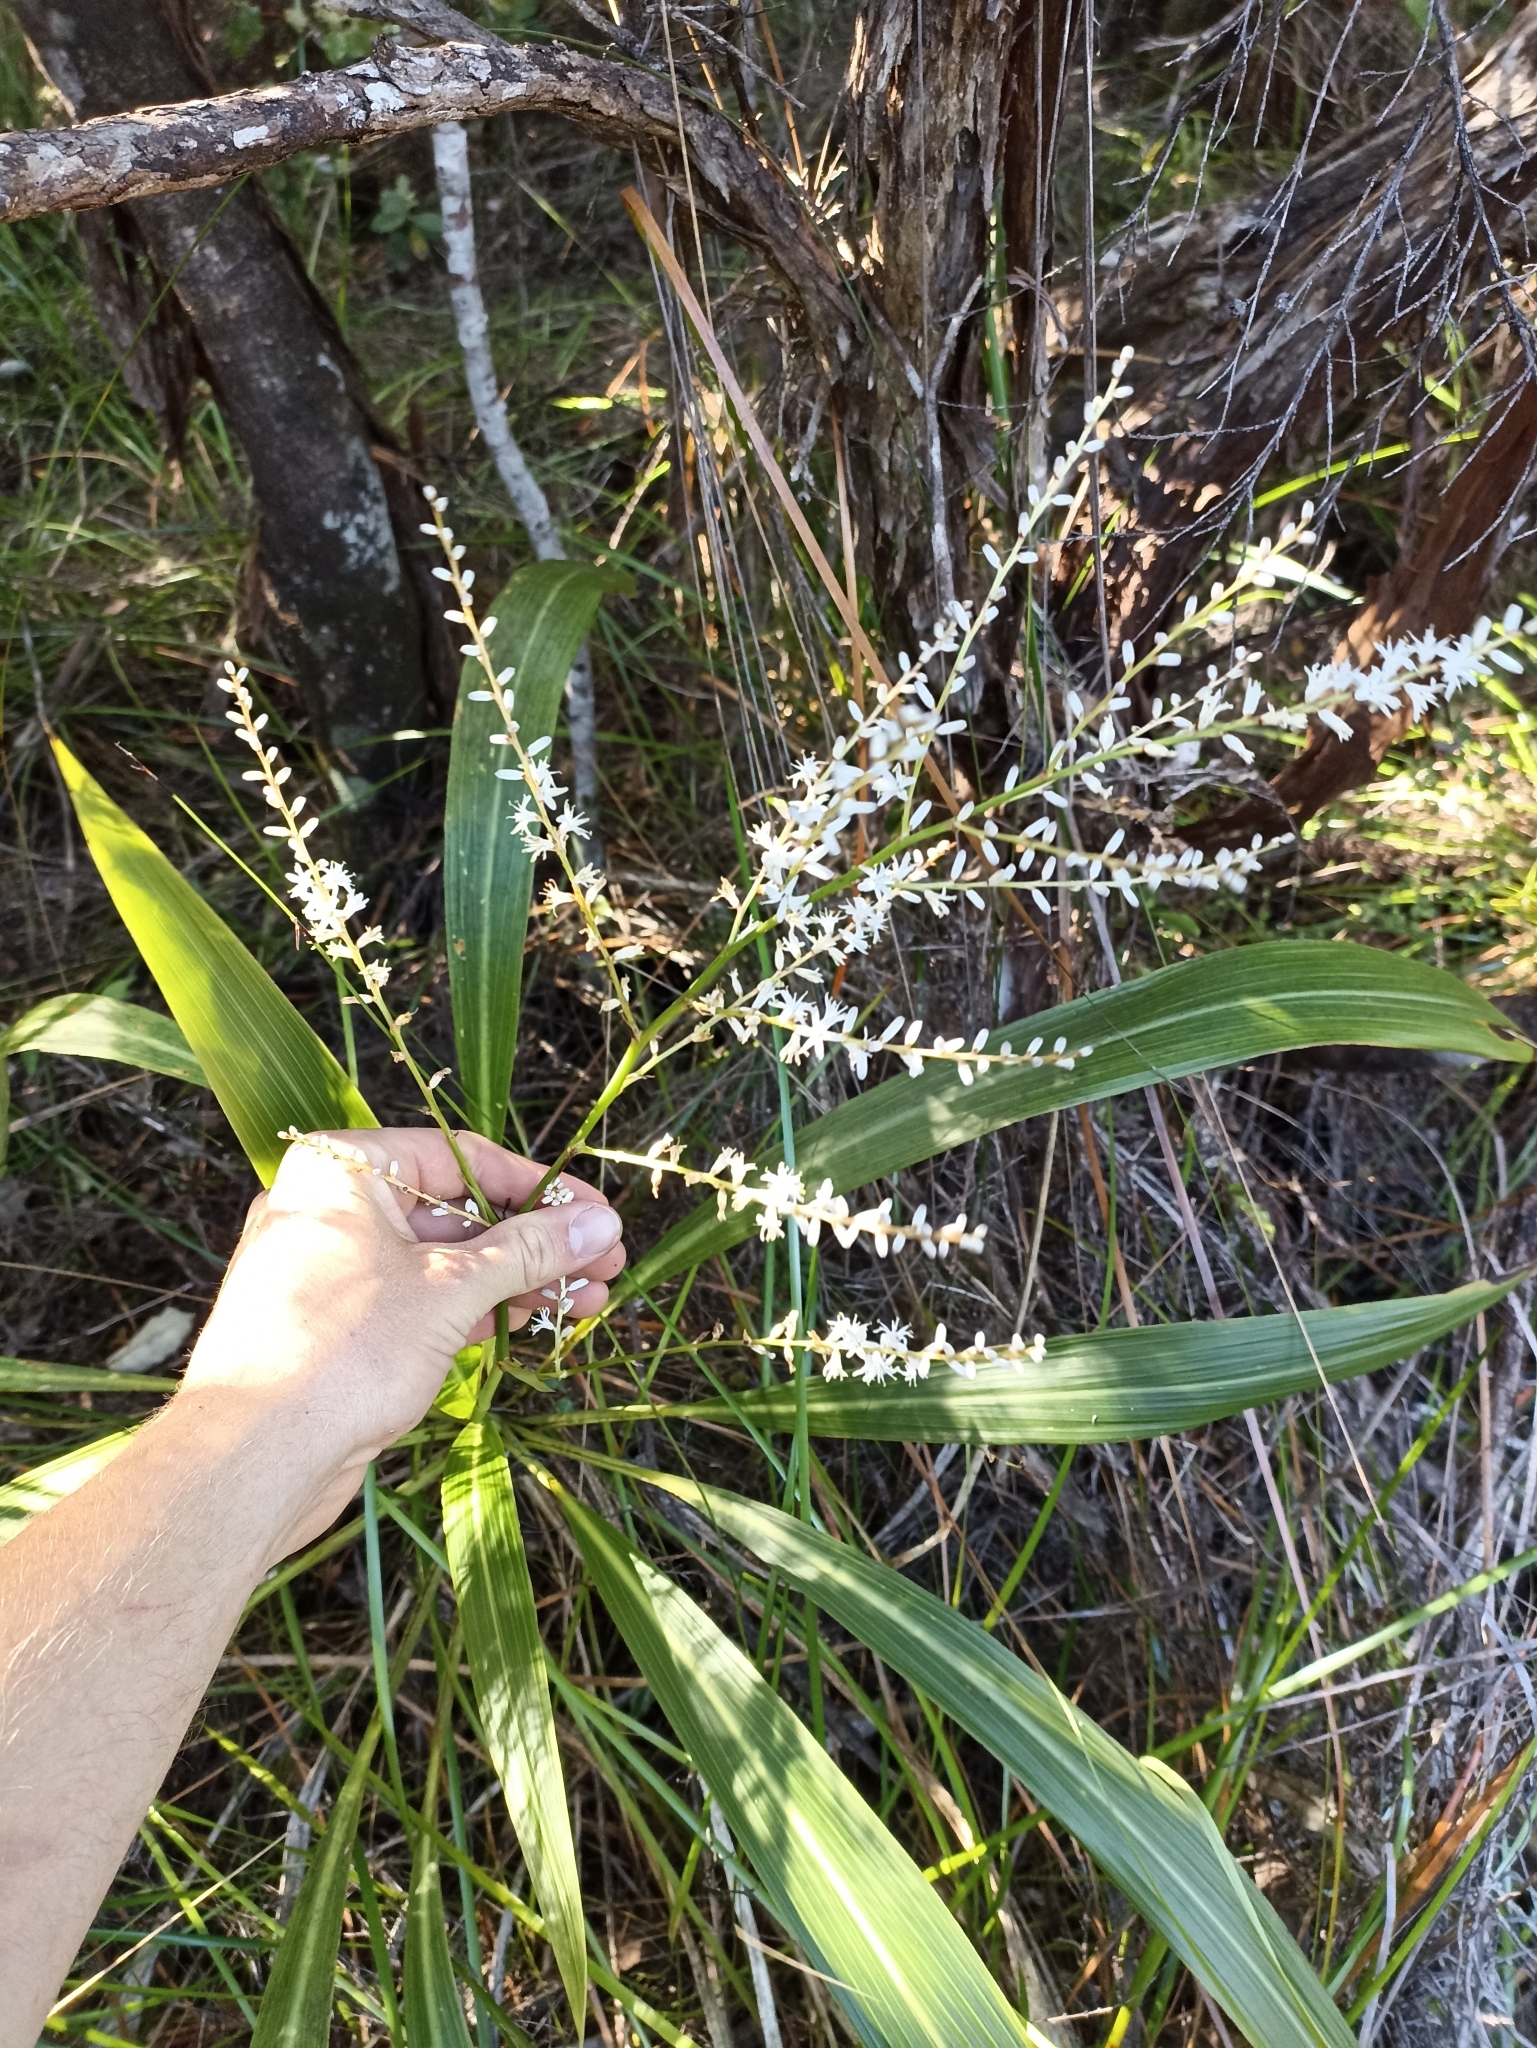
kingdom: Plantae
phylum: Tracheophyta
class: Liliopsida
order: Asparagales
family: Asparagaceae
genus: Cordyline
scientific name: Cordyline banksii
